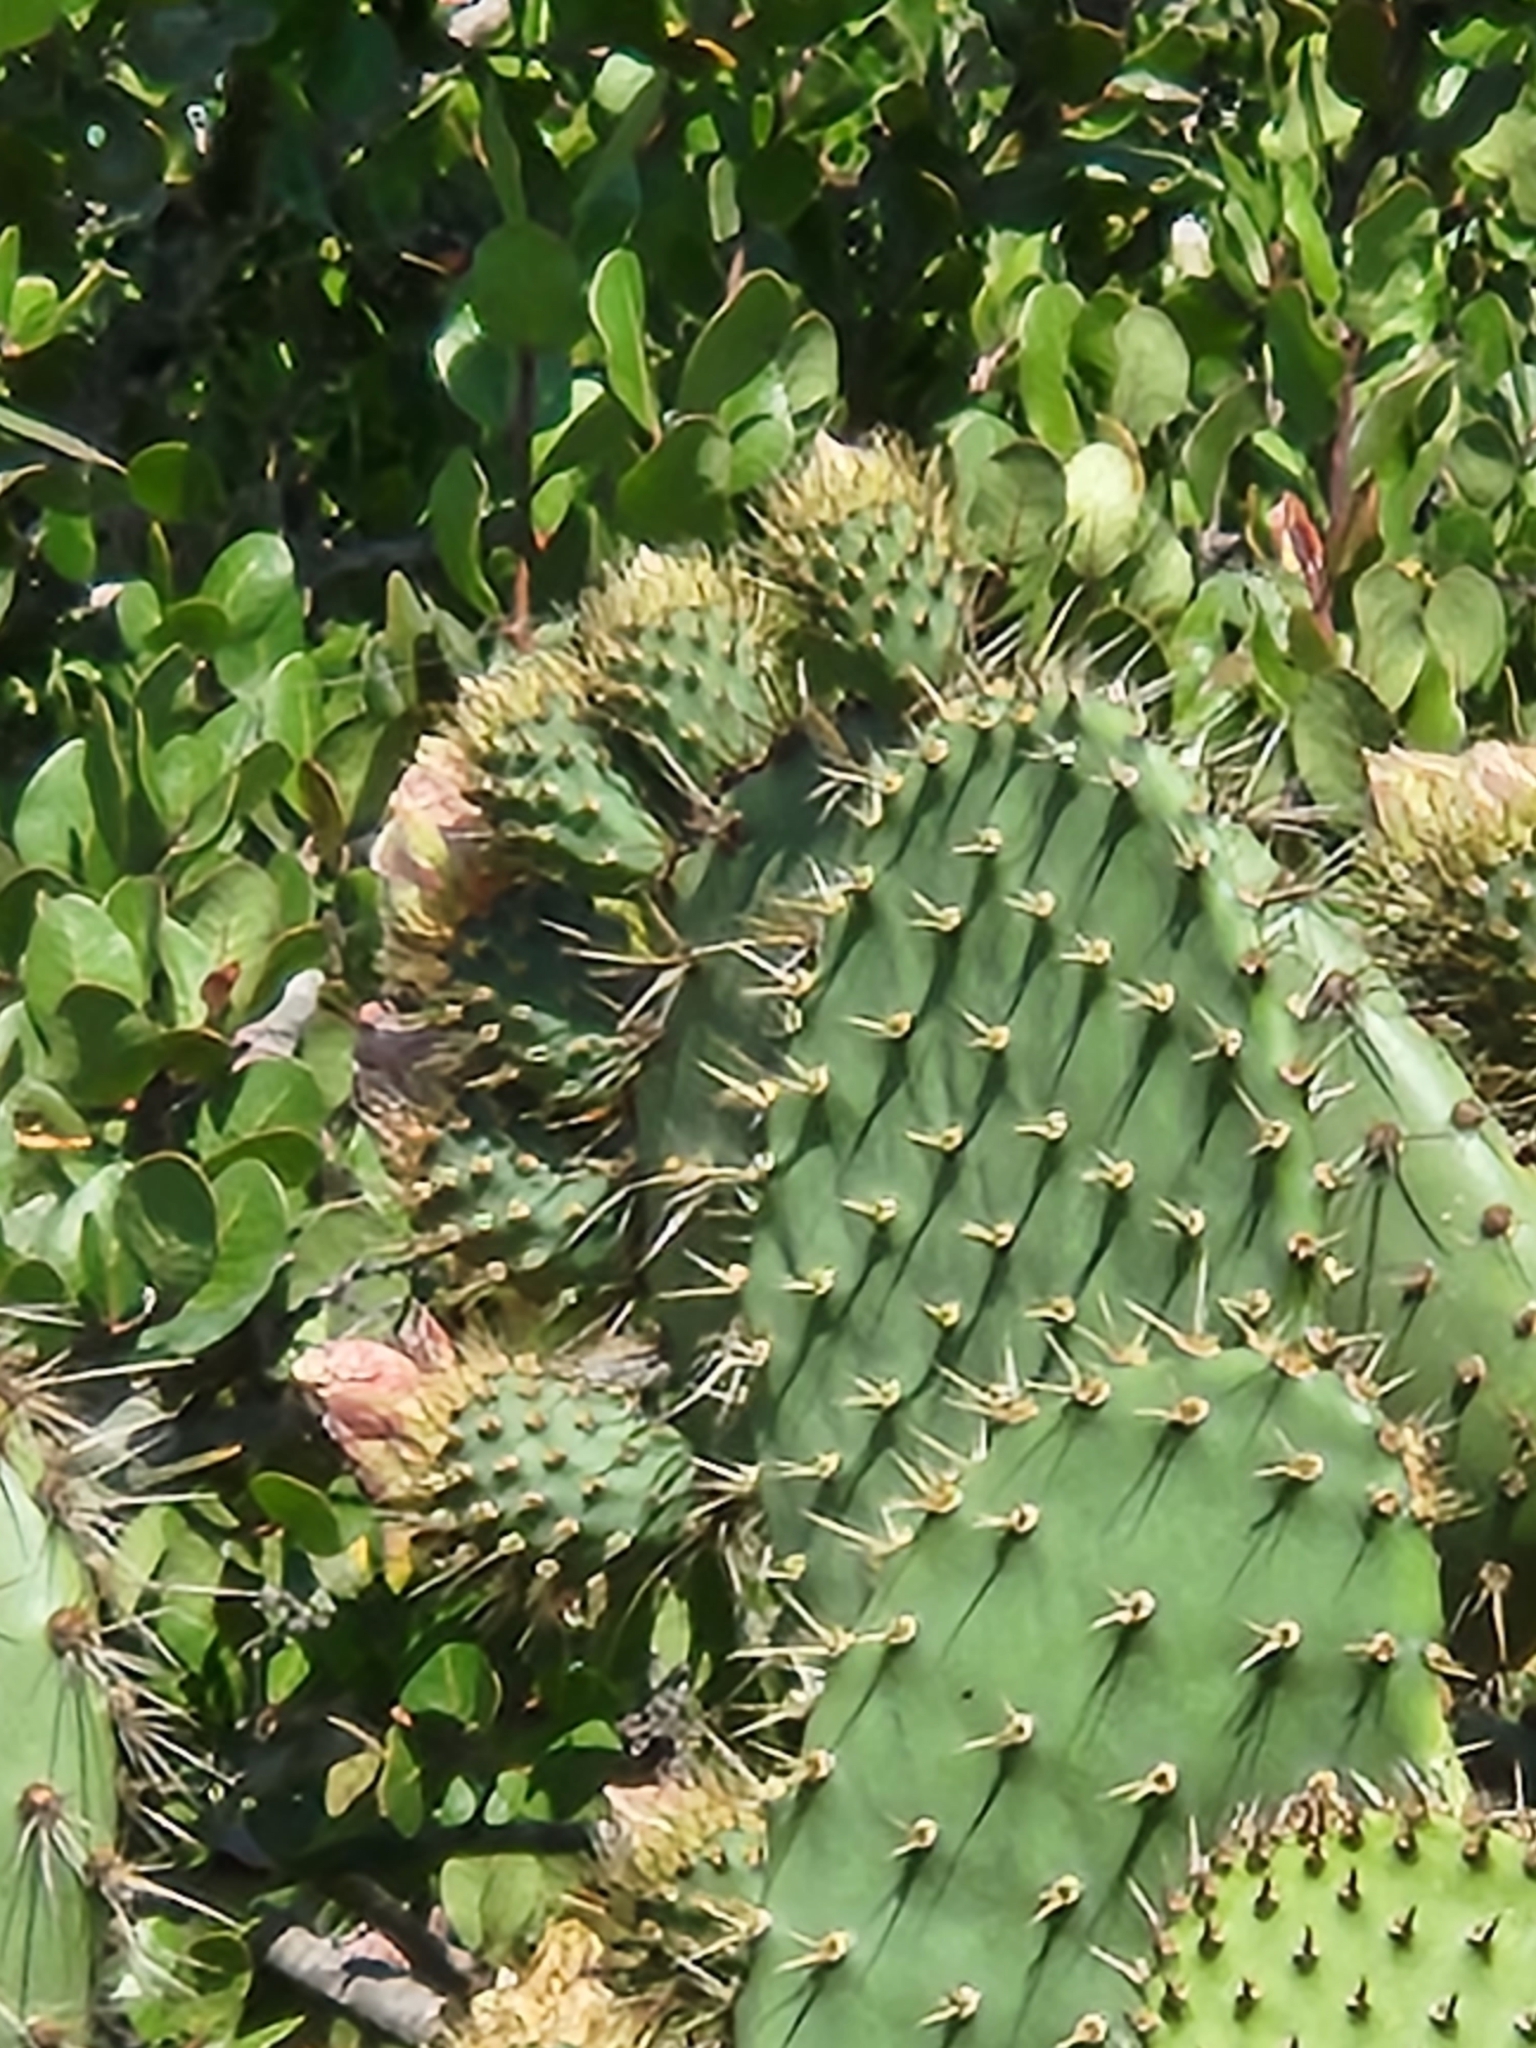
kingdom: Plantae
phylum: Tracheophyta
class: Magnoliopsida
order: Caryophyllales
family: Cactaceae
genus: Opuntia
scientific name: Opuntia oricola
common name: Chaparral prickly-pear
